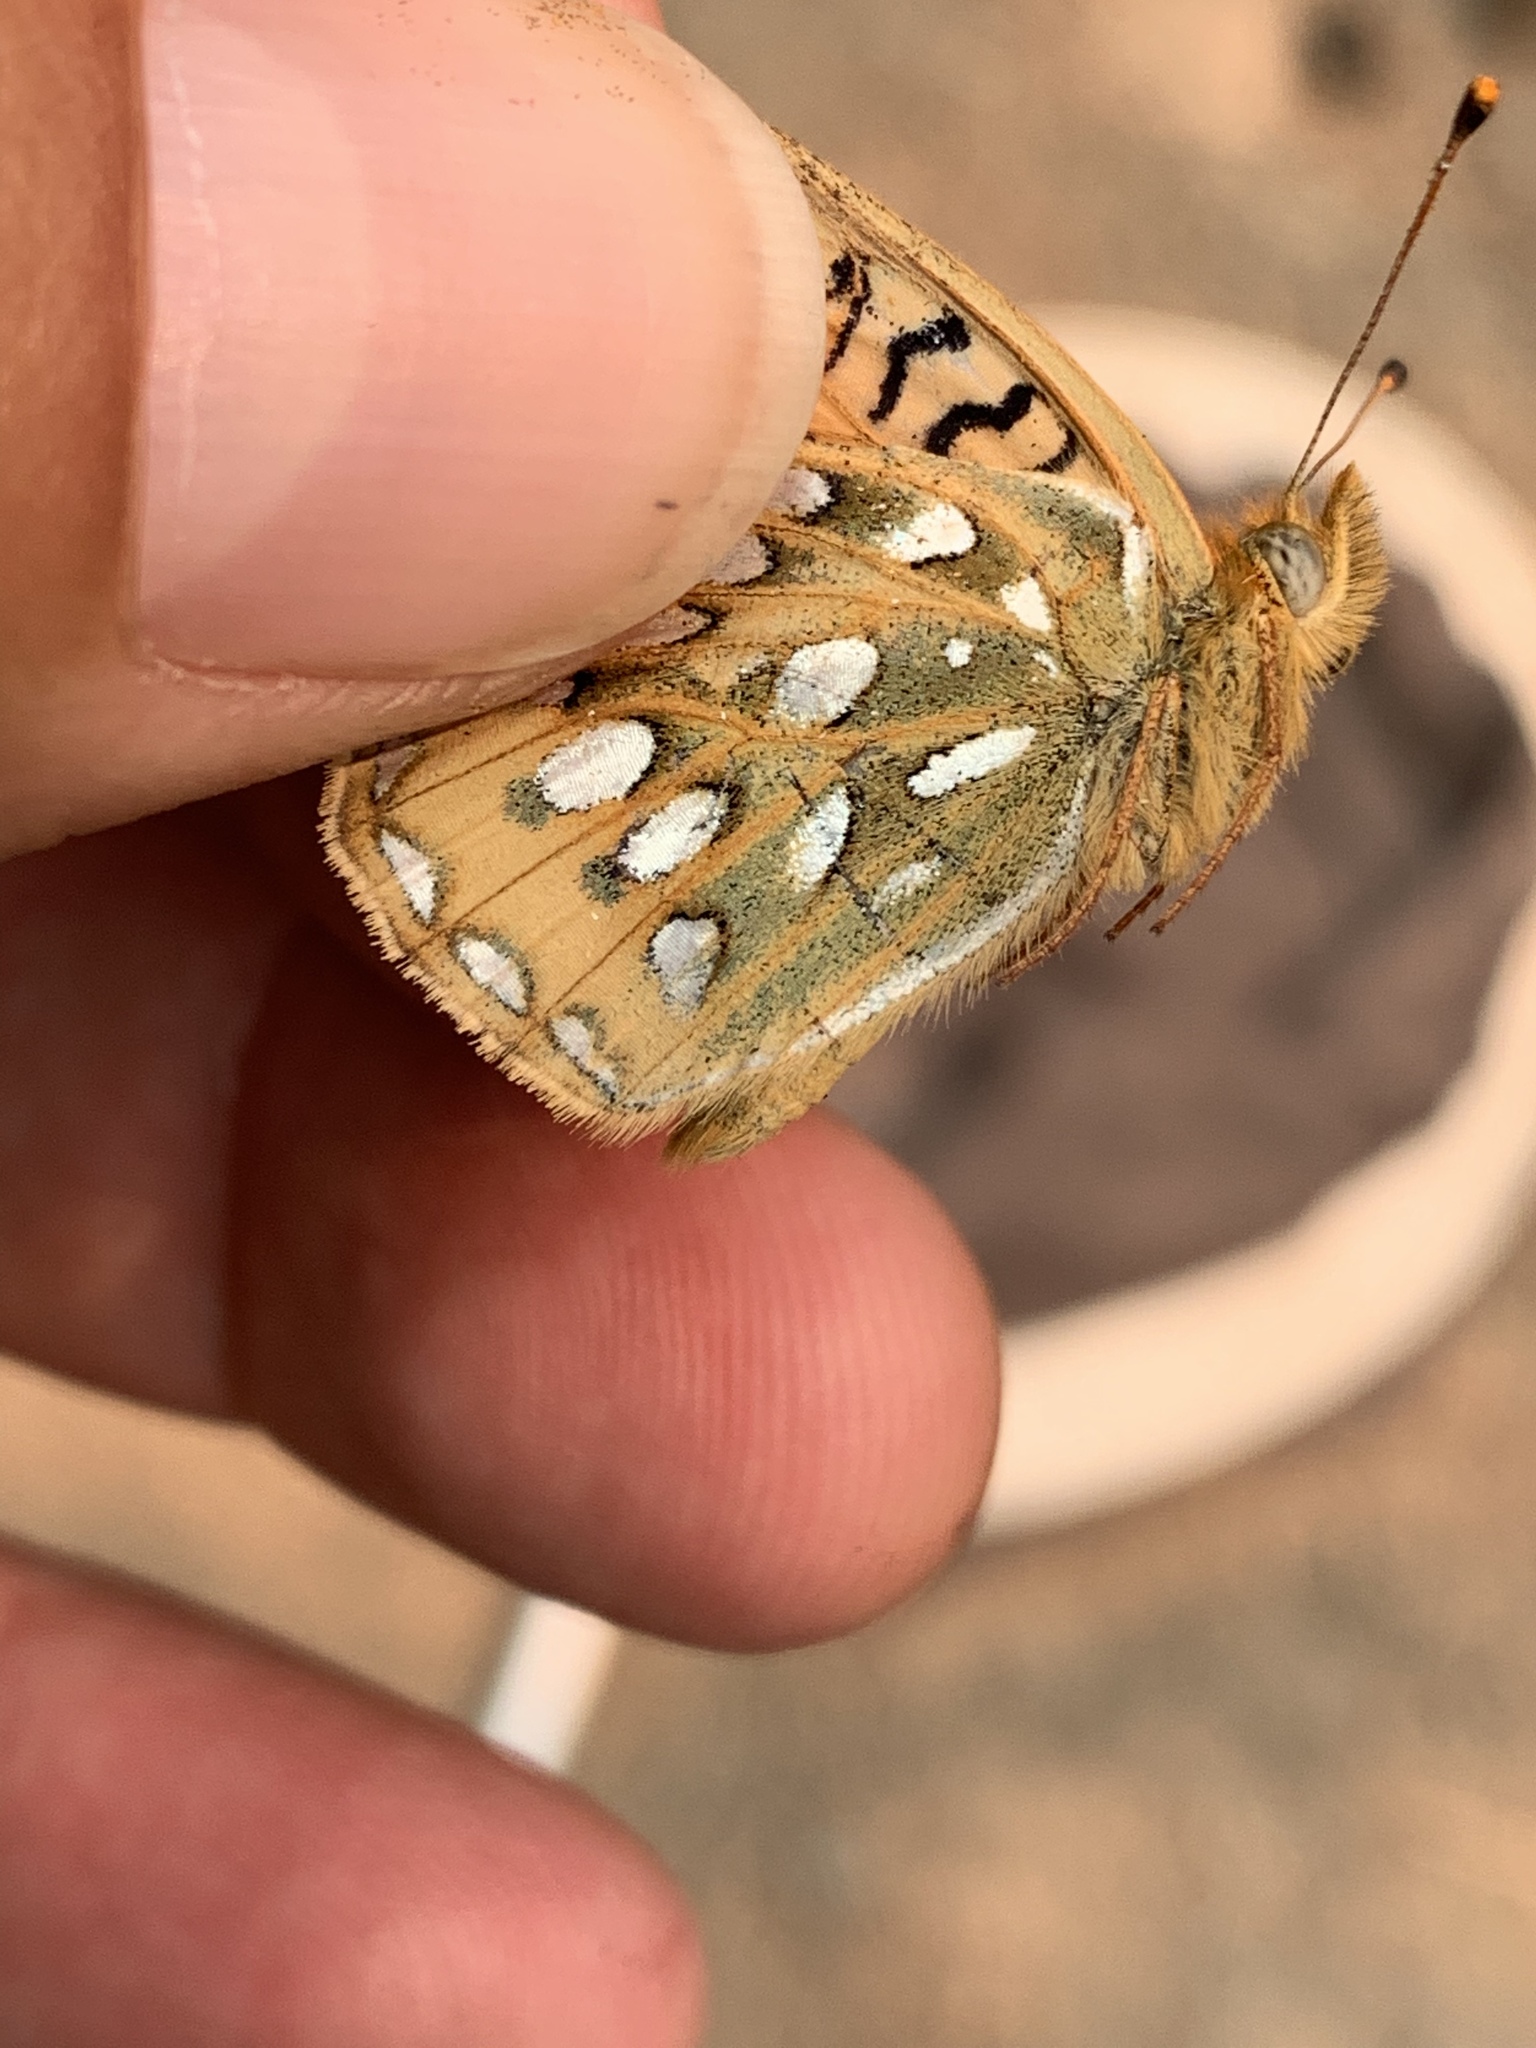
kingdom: Animalia
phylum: Arthropoda
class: Insecta
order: Lepidoptera
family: Nymphalidae
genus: Speyeria
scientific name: Speyeria mormonia
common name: Mormon fritillary
